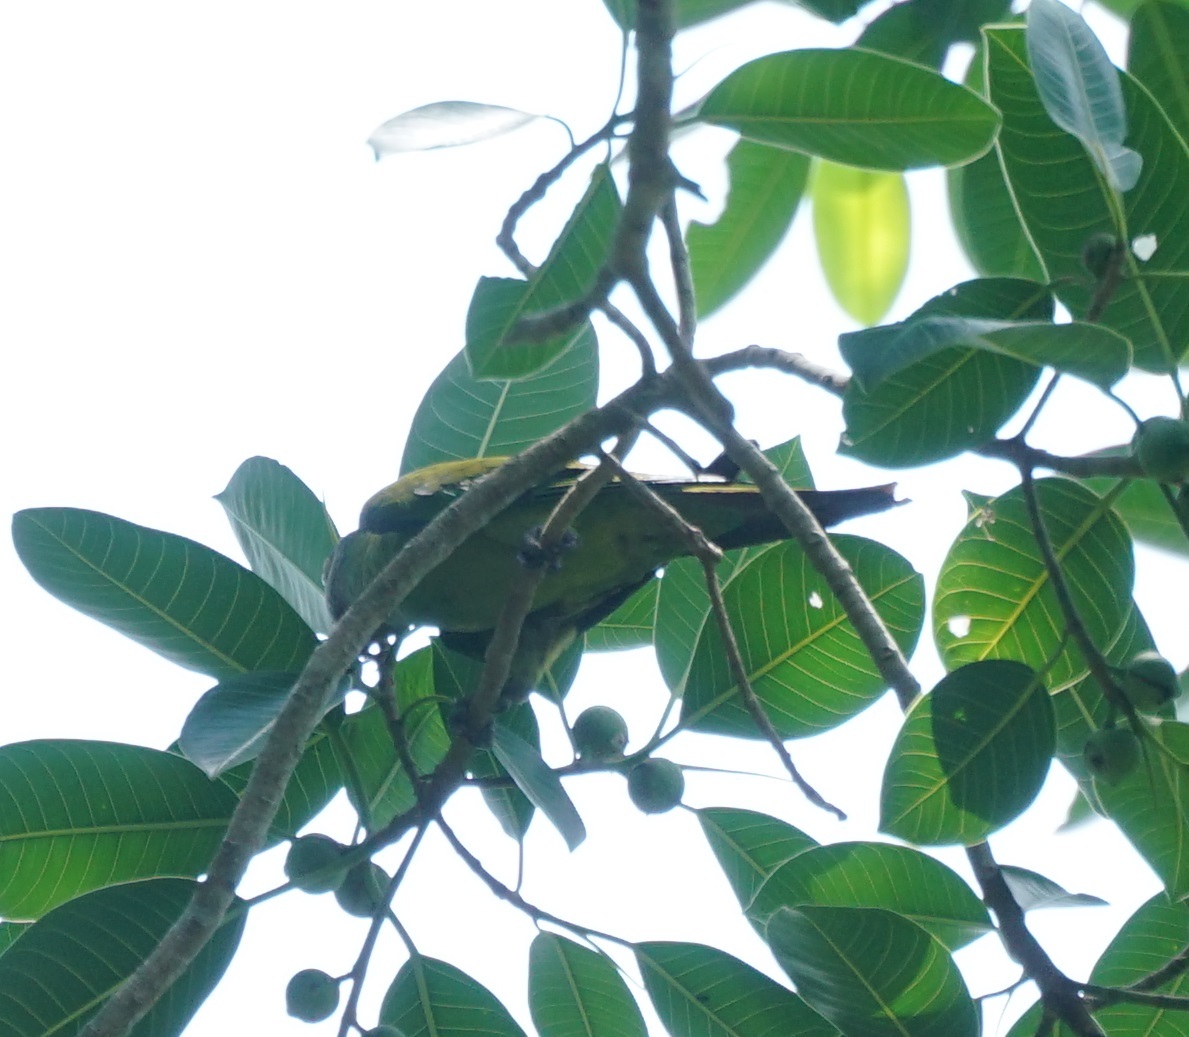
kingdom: Animalia
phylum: Chordata
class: Aves
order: Psittaciformes
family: Psittacidae
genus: Aratinga
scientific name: Aratinga weddellii
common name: Dusky-headed parakeet
